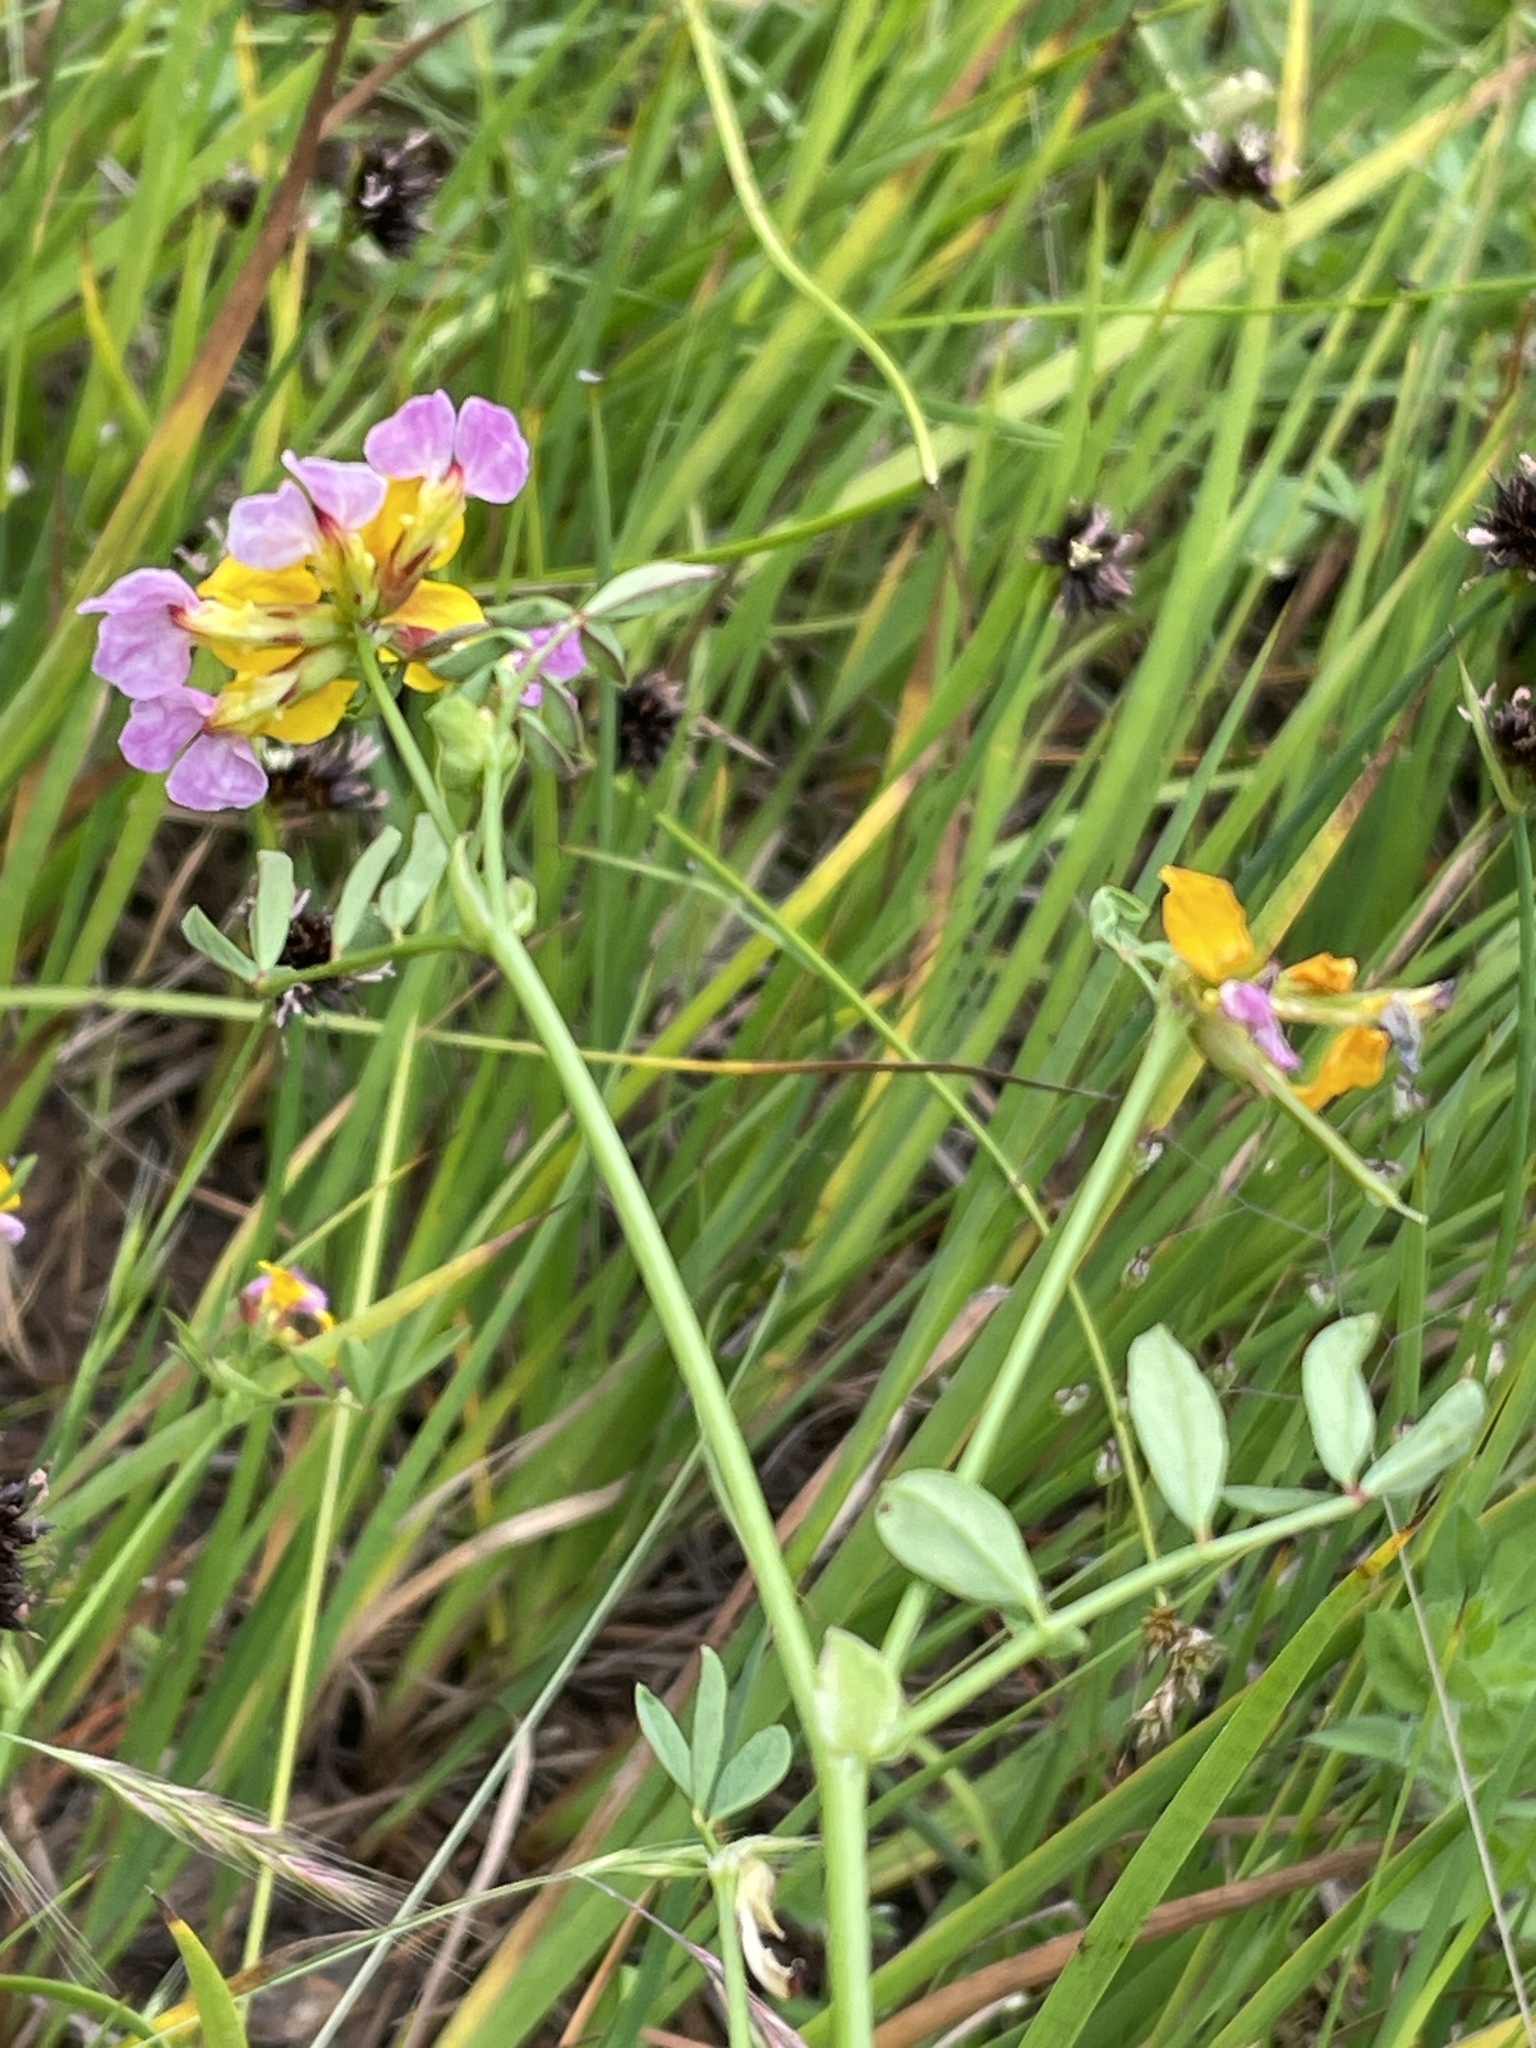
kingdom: Plantae
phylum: Tracheophyta
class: Magnoliopsida
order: Fabales
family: Fabaceae
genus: Hosackia
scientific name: Hosackia gracilis
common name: Seaside bird's-foot lotus
